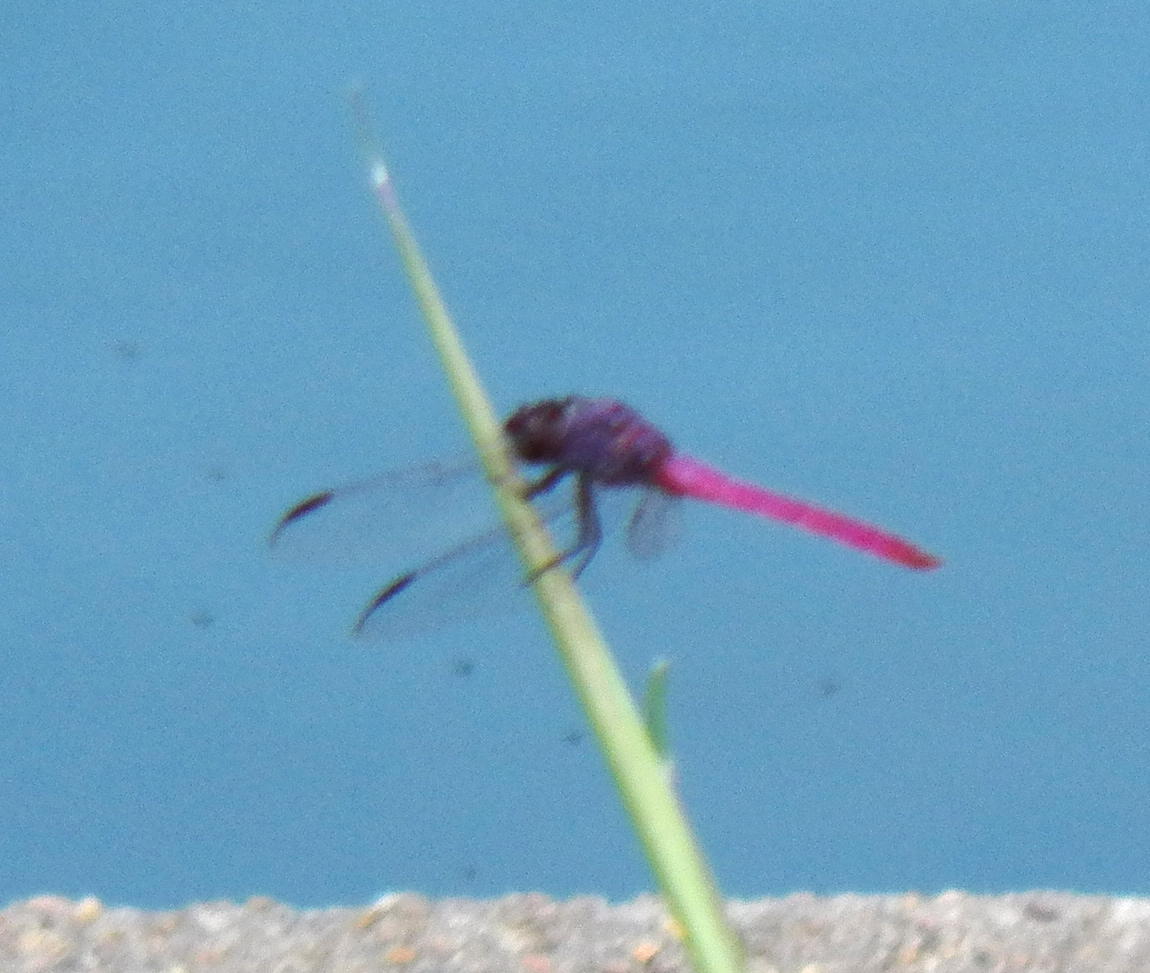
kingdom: Animalia
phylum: Arthropoda
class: Insecta
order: Odonata
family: Libellulidae
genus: Orthemis
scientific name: Orthemis ferruginea
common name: Roseate skimmer
